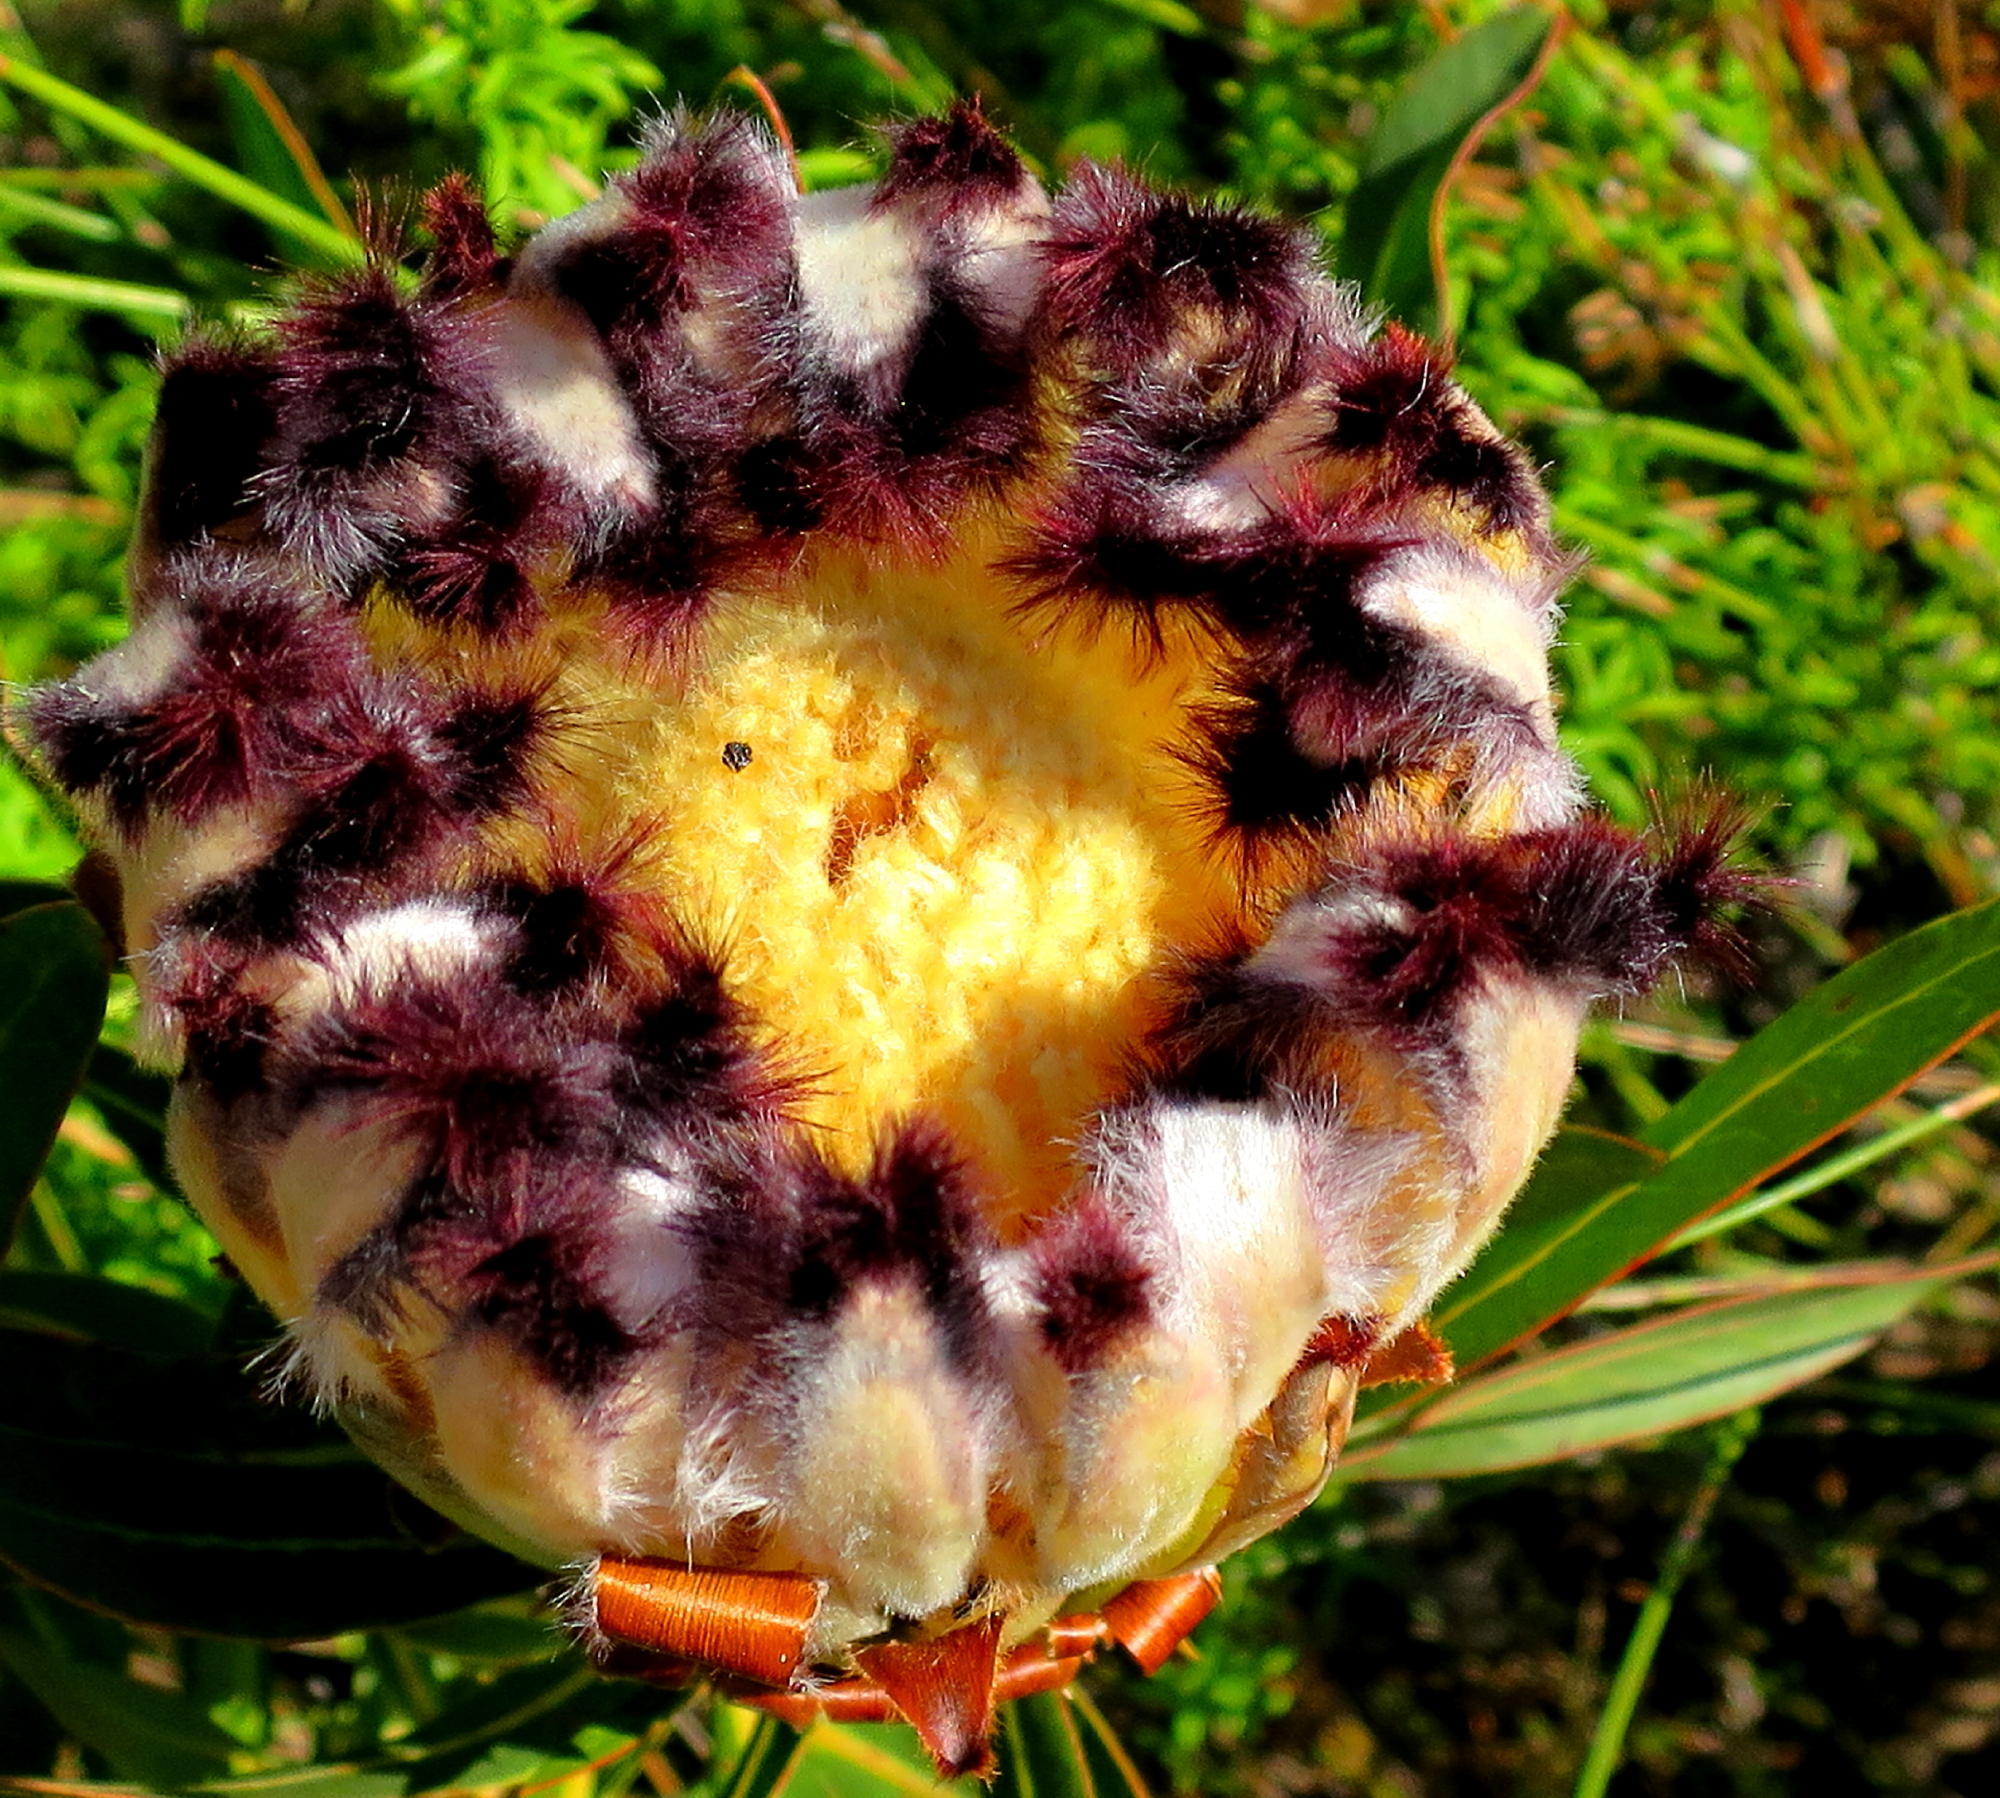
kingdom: Plantae
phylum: Tracheophyta
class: Magnoliopsida
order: Proteales
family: Proteaceae
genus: Protea
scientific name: Protea neriifolia
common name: Blue sugarbush
